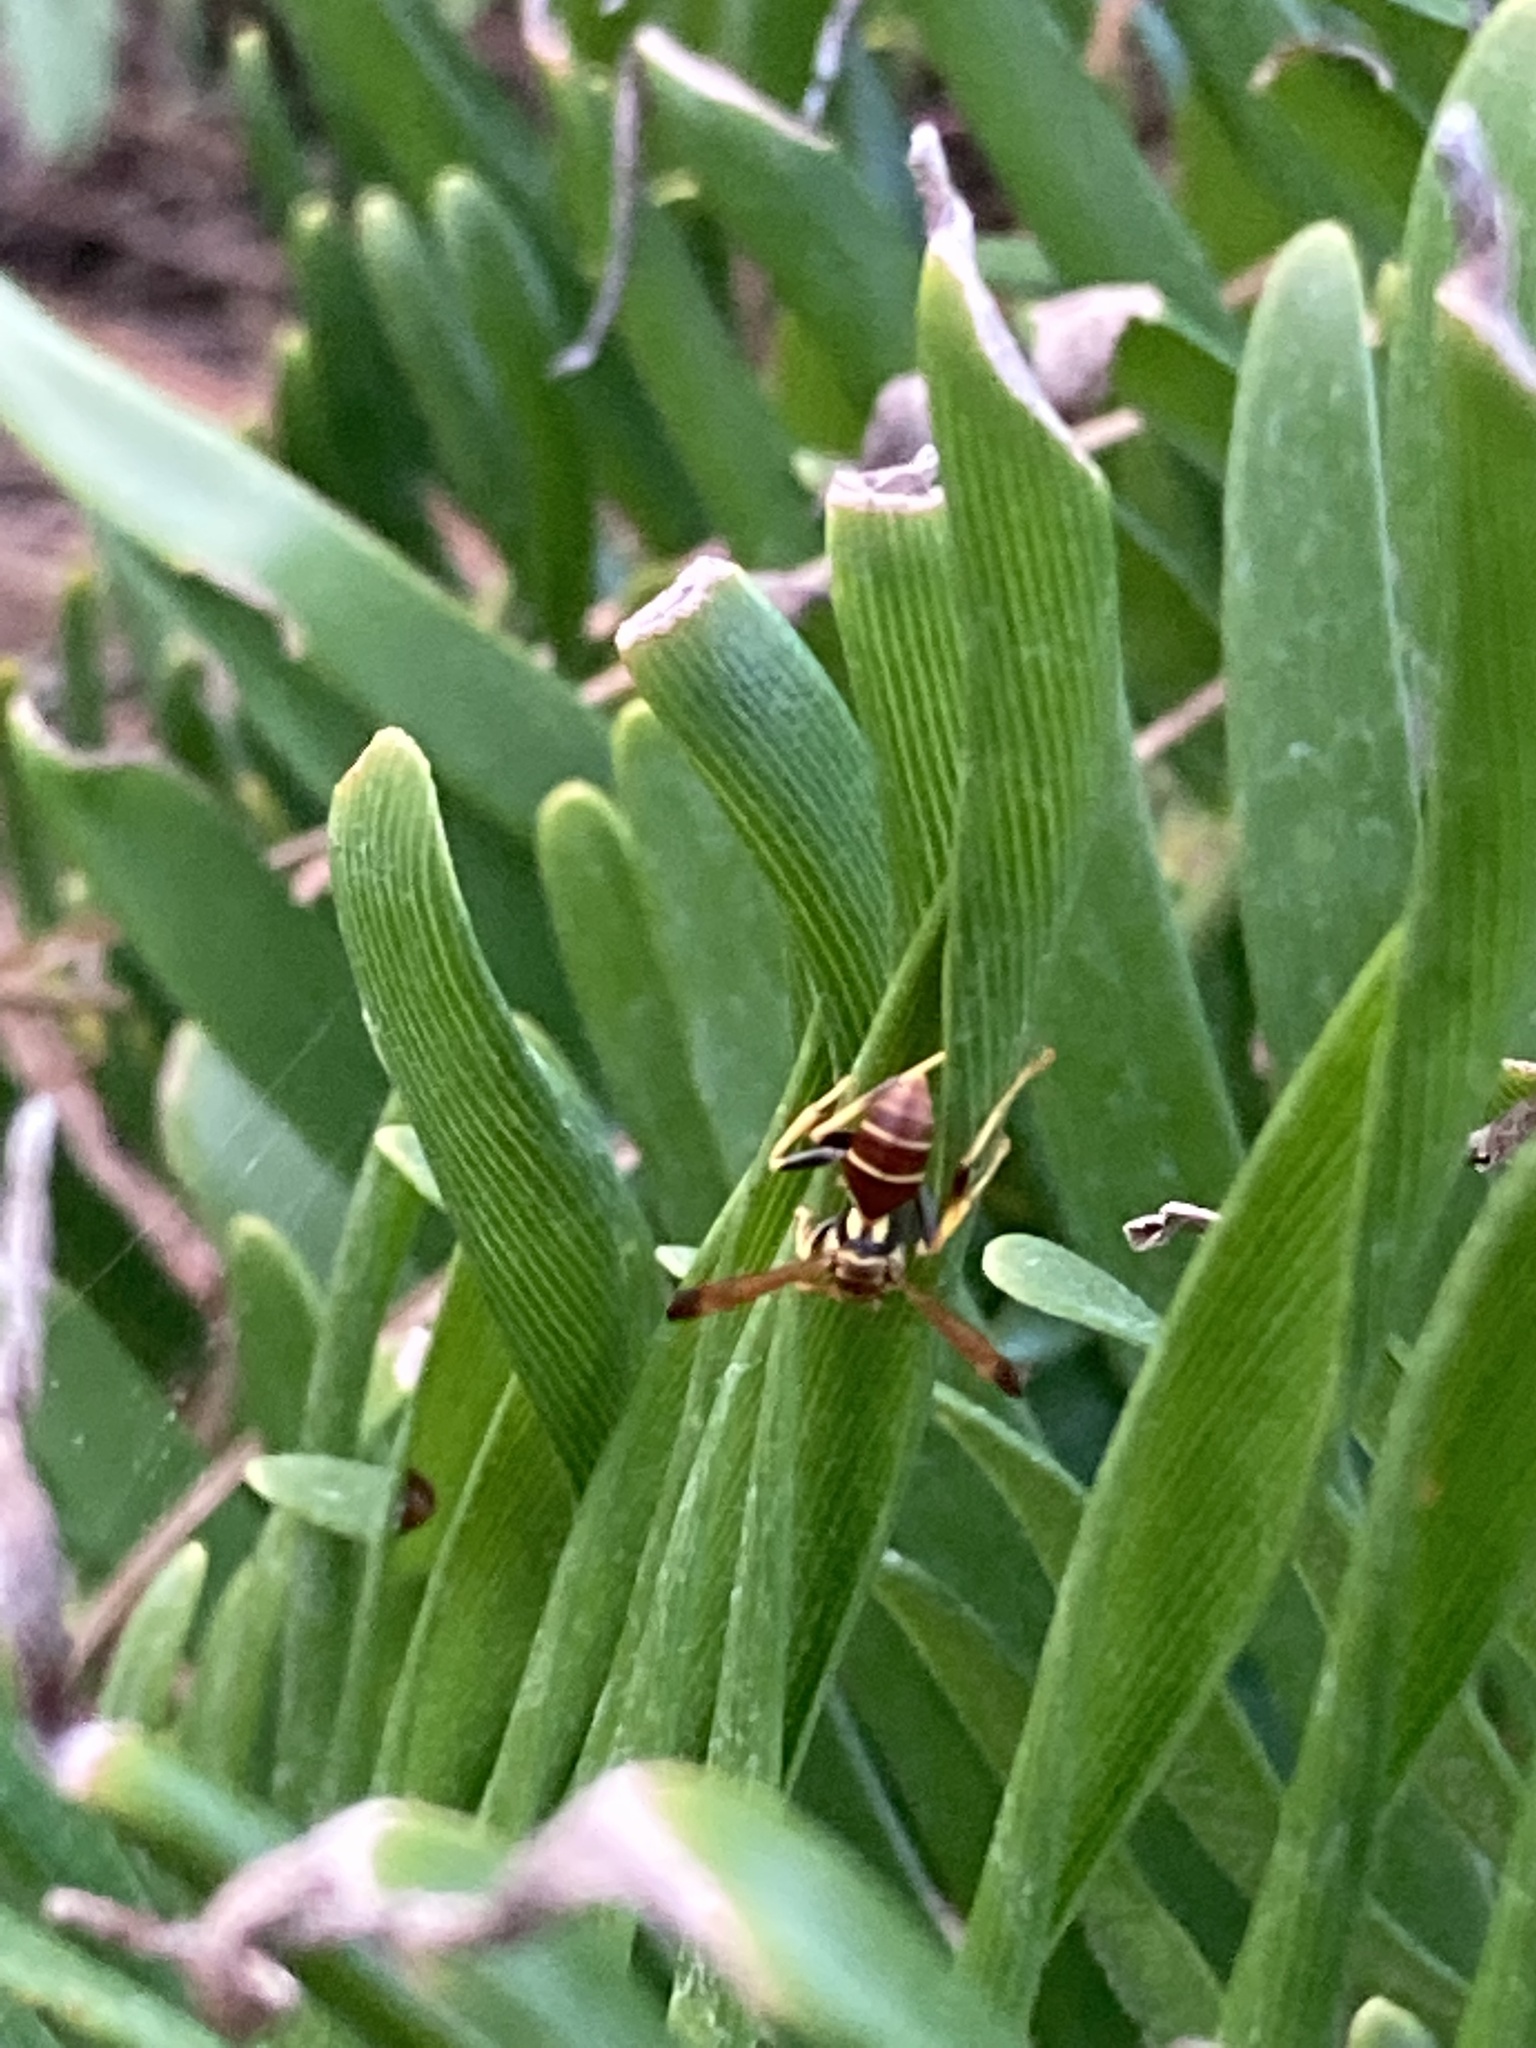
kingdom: Animalia
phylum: Arthropoda
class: Insecta
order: Hymenoptera
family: Vespidae
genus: Mischocyttarus
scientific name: Mischocyttarus mexicanus
